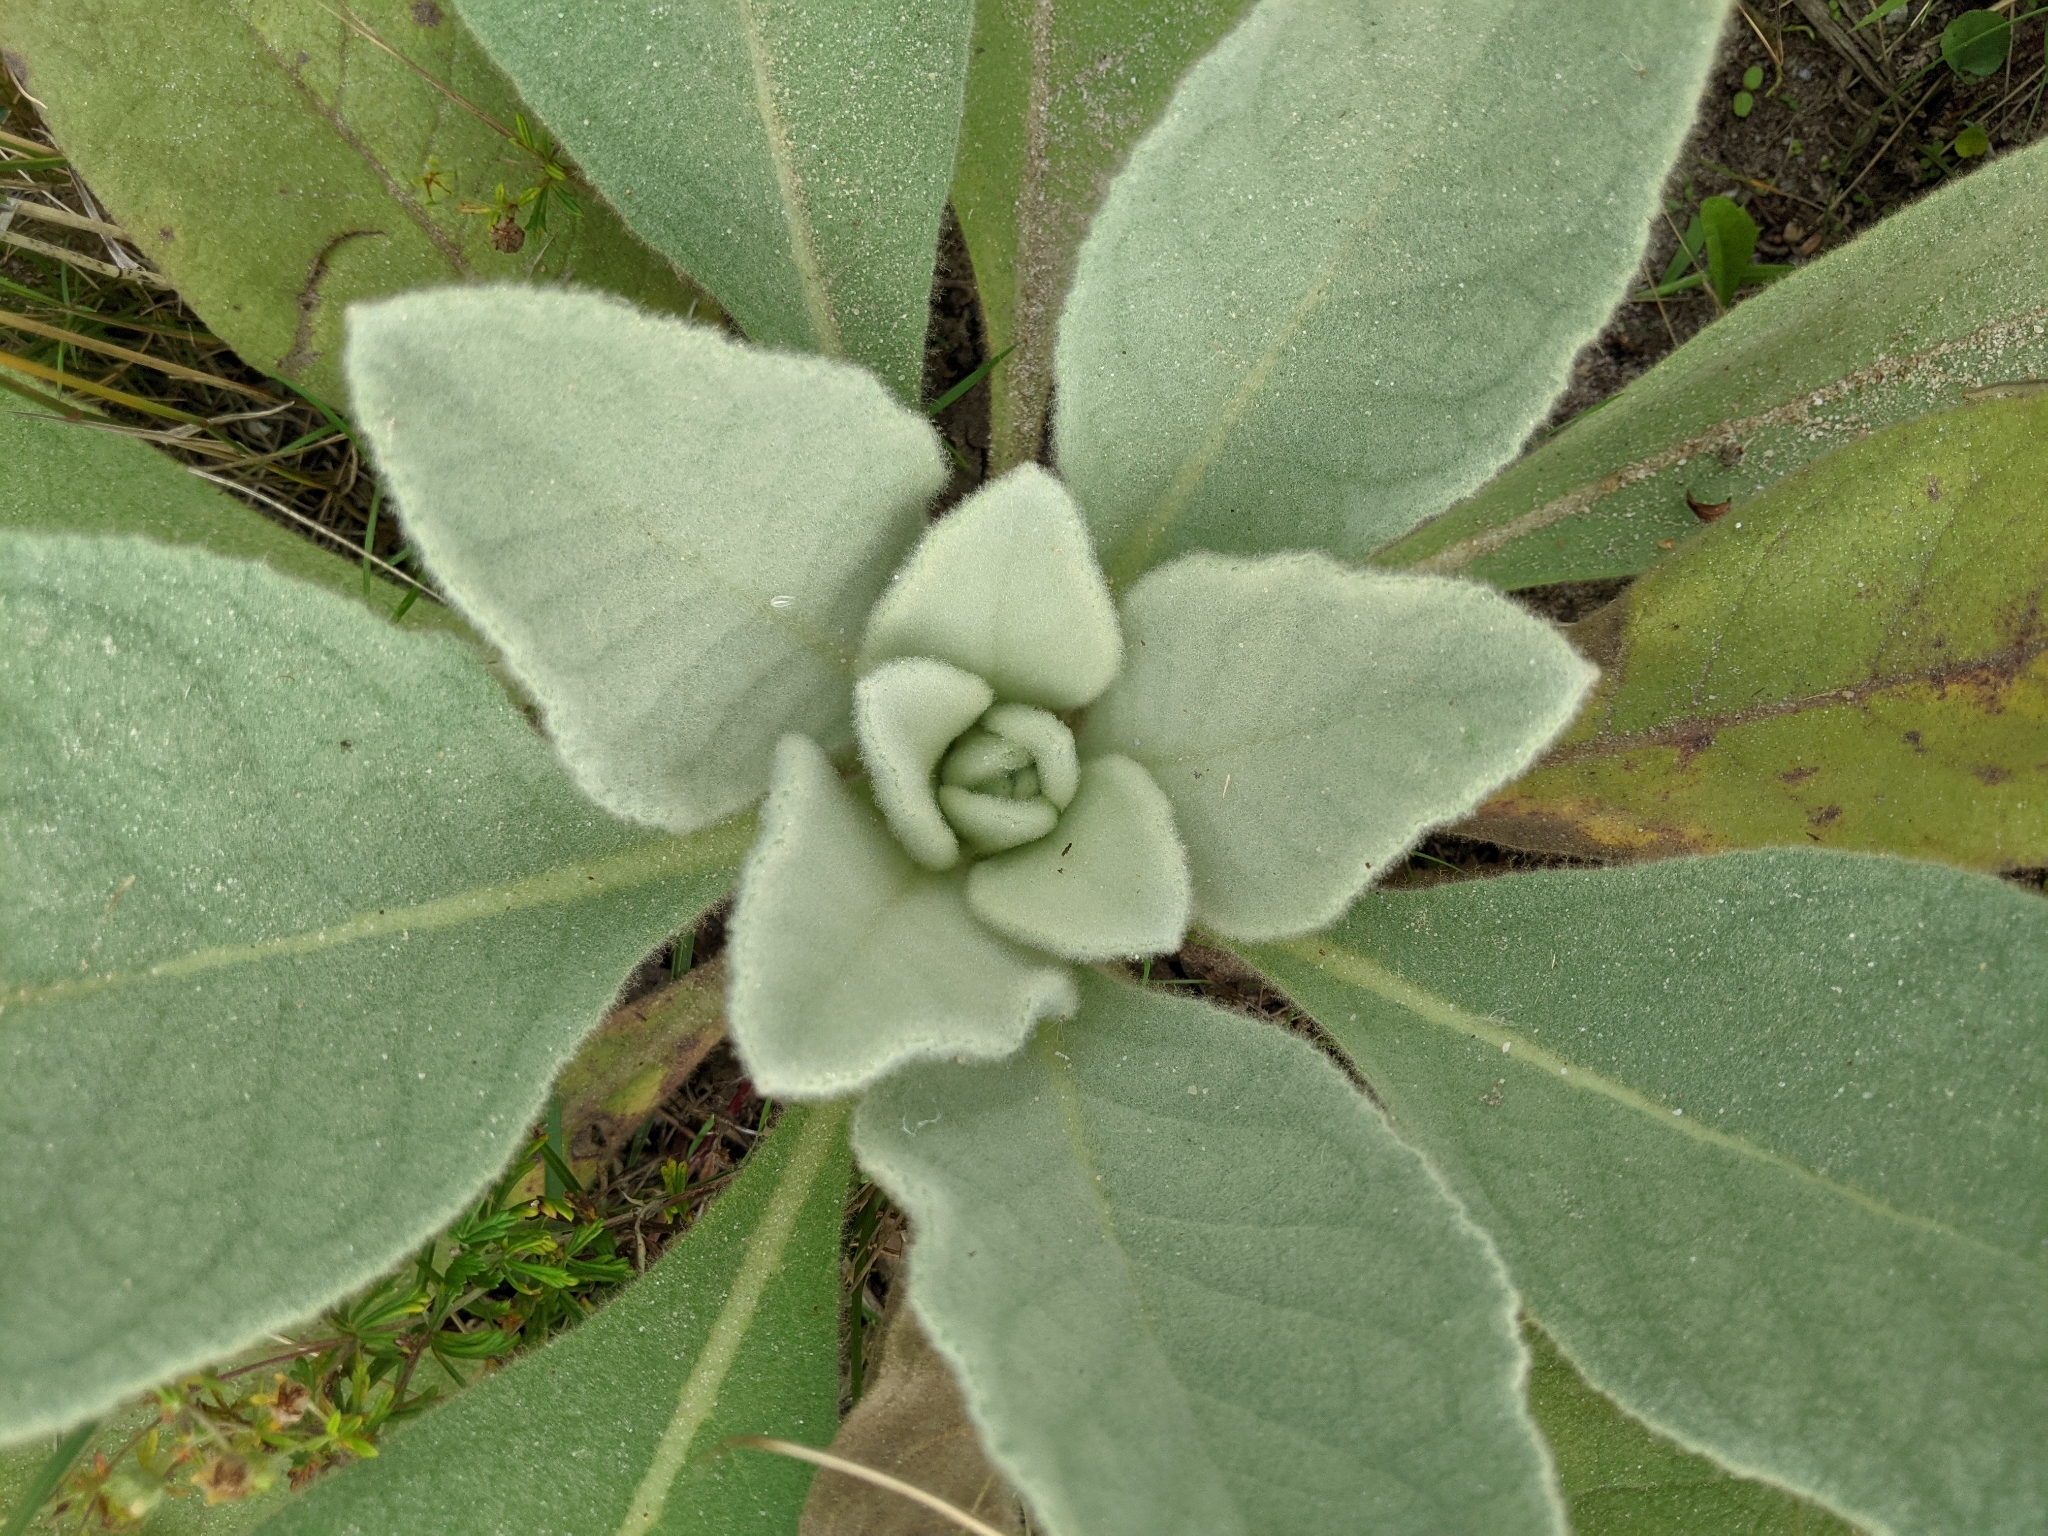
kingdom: Plantae
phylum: Tracheophyta
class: Magnoliopsida
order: Lamiales
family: Scrophulariaceae
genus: Verbascum
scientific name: Verbascum thapsus
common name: Common mullein
